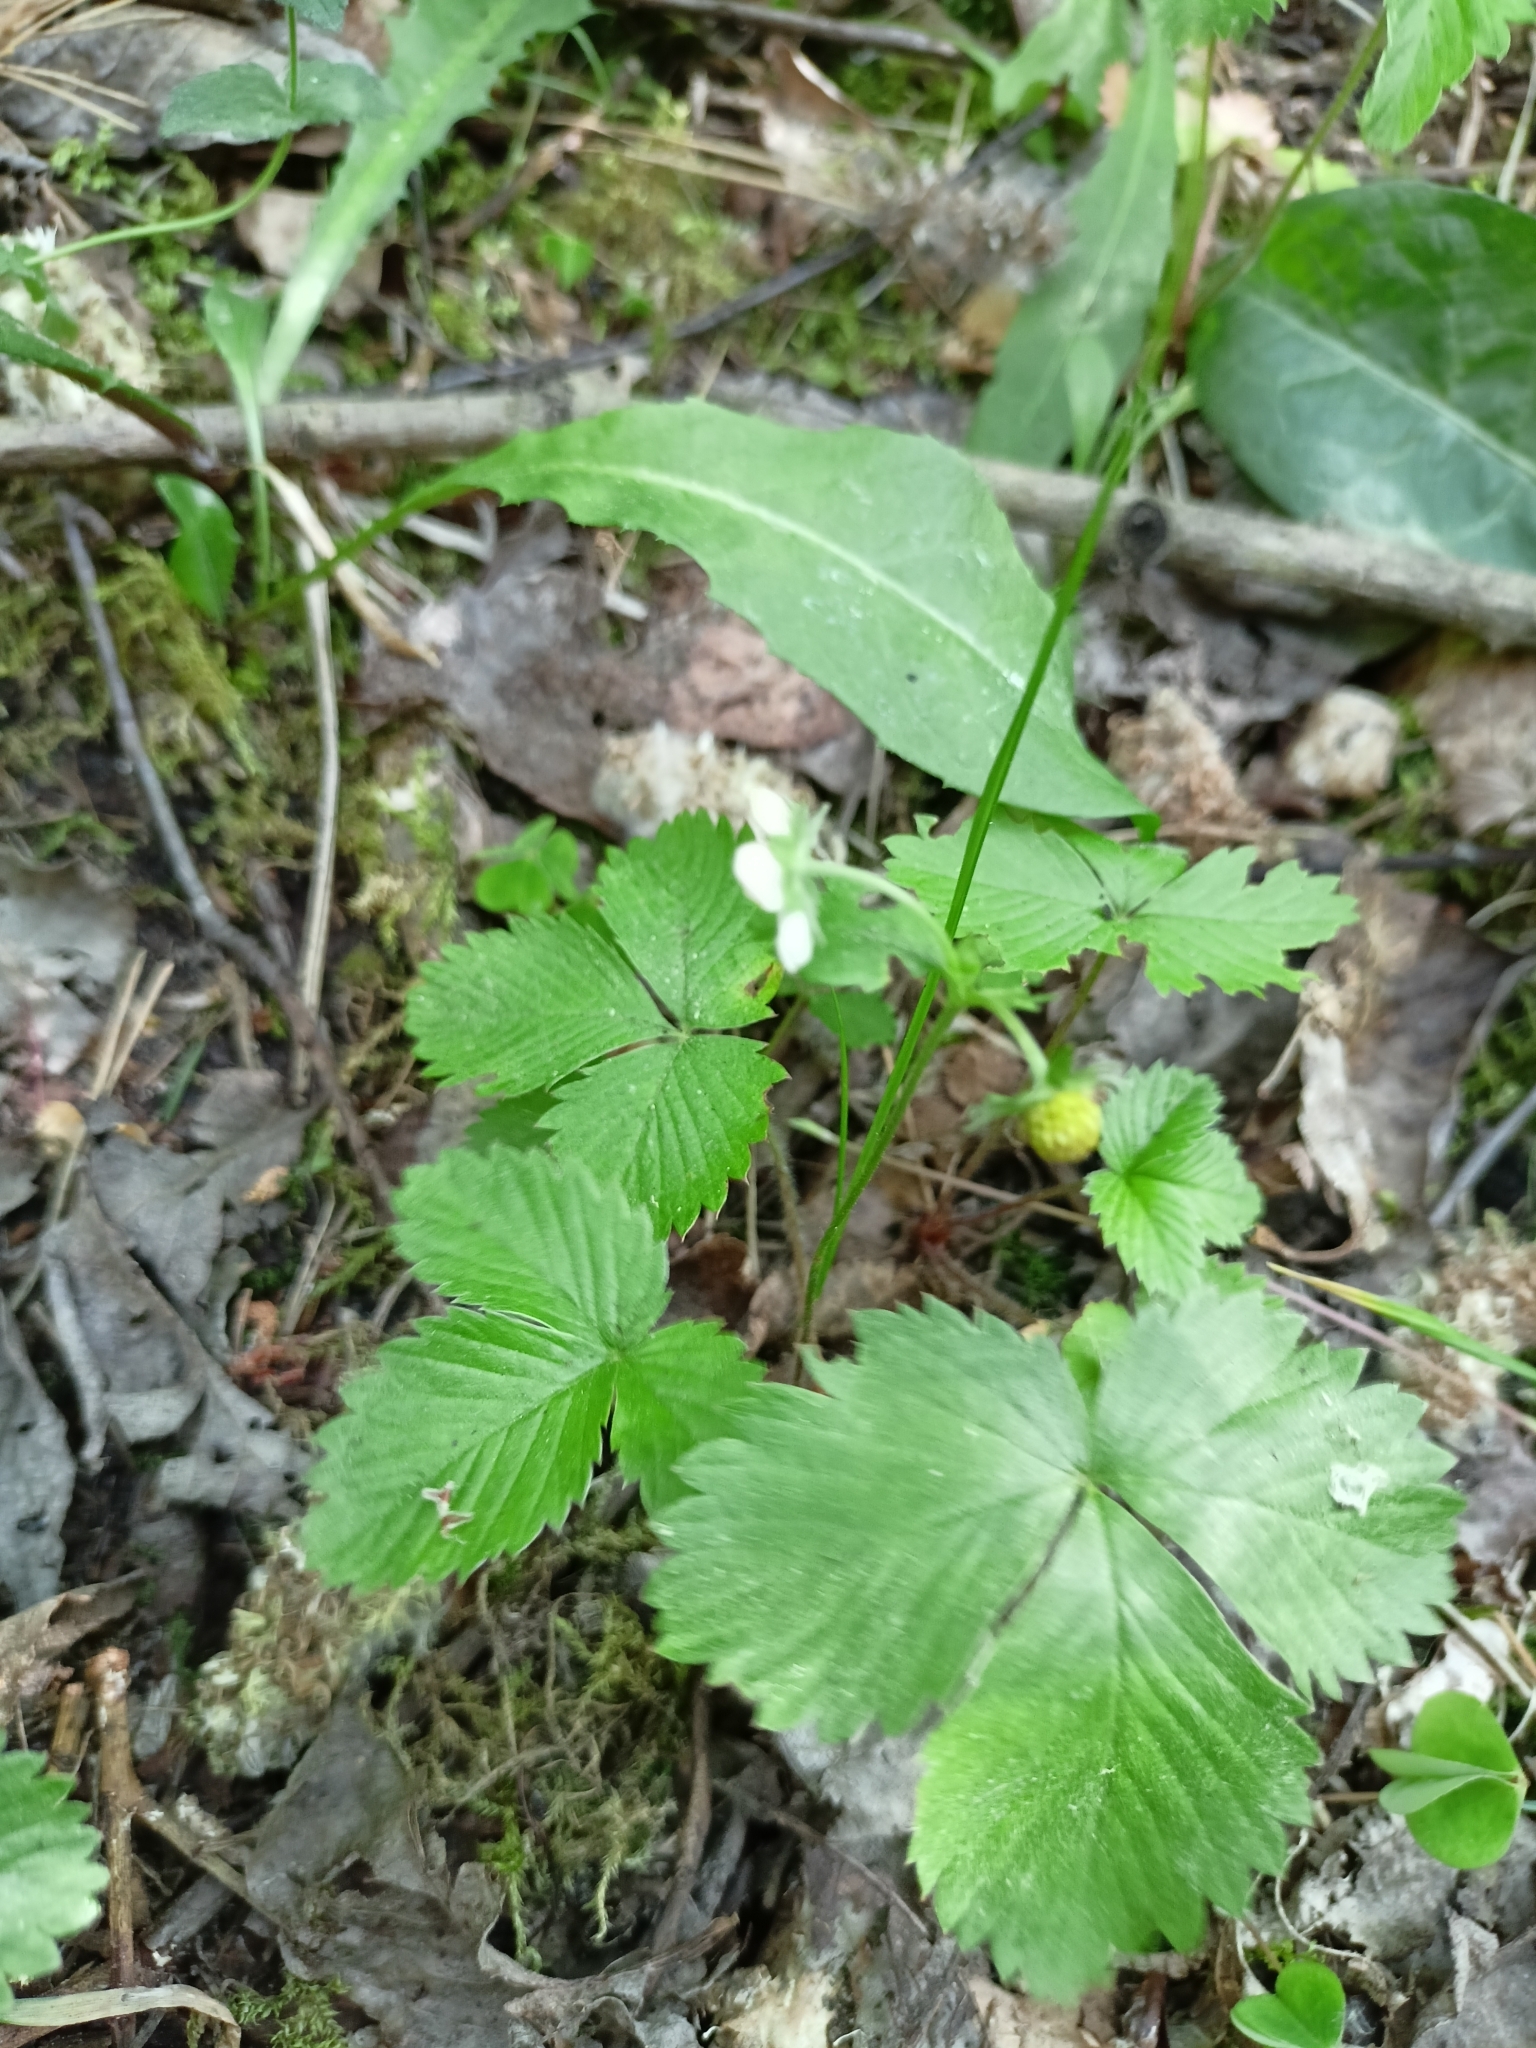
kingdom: Plantae
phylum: Tracheophyta
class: Magnoliopsida
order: Rosales
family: Rosaceae
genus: Fragaria
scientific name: Fragaria vesca
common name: Wild strawberry
